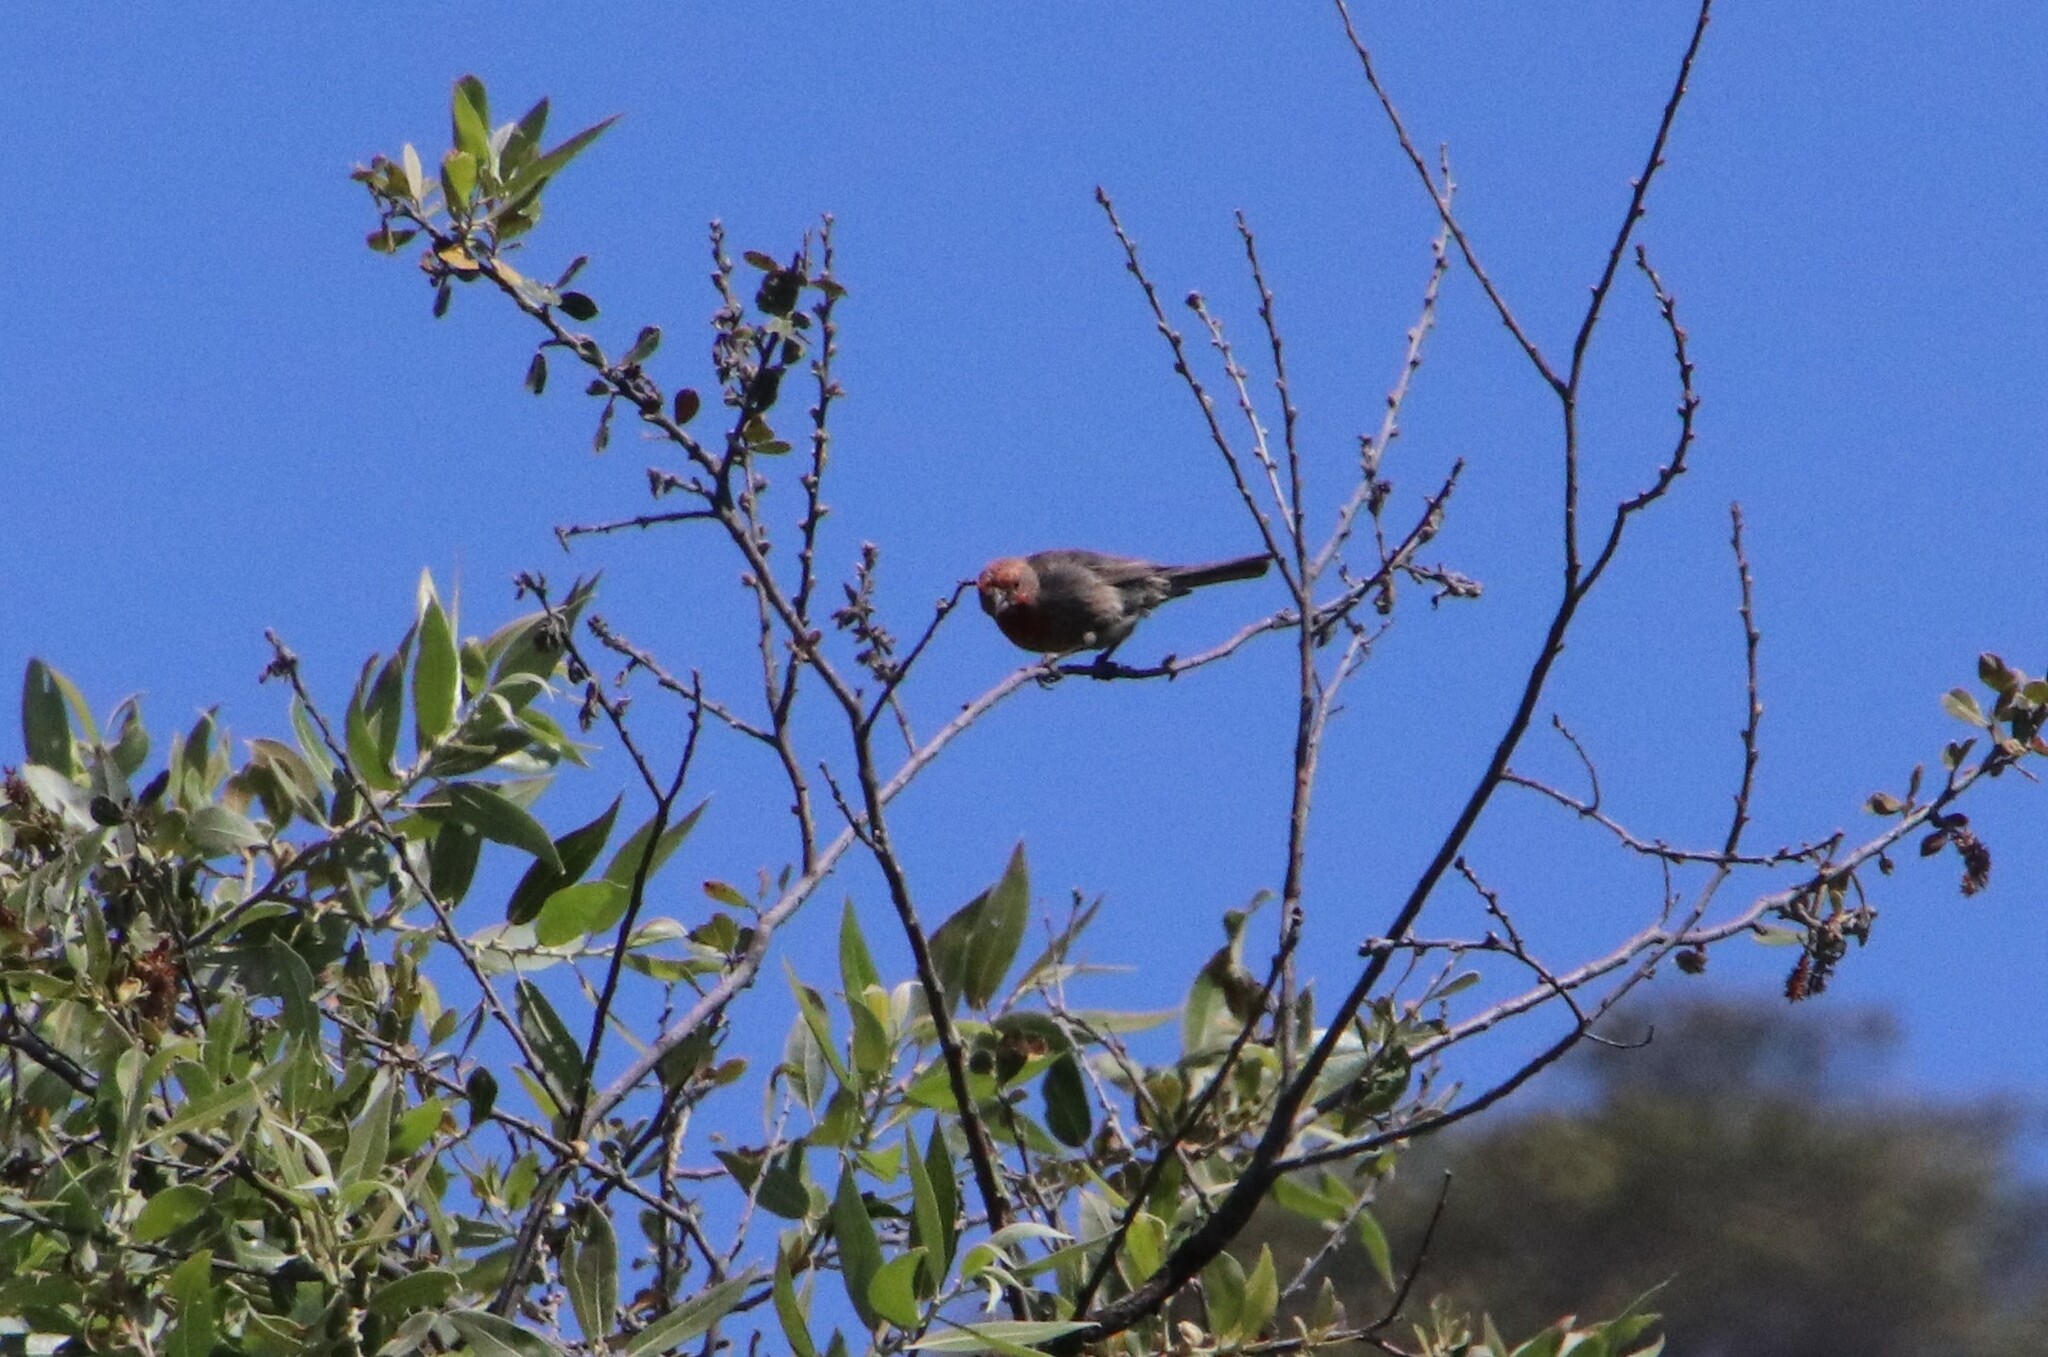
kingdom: Animalia
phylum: Chordata
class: Aves
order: Passeriformes
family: Fringillidae
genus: Haemorhous
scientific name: Haemorhous mexicanus
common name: House finch
